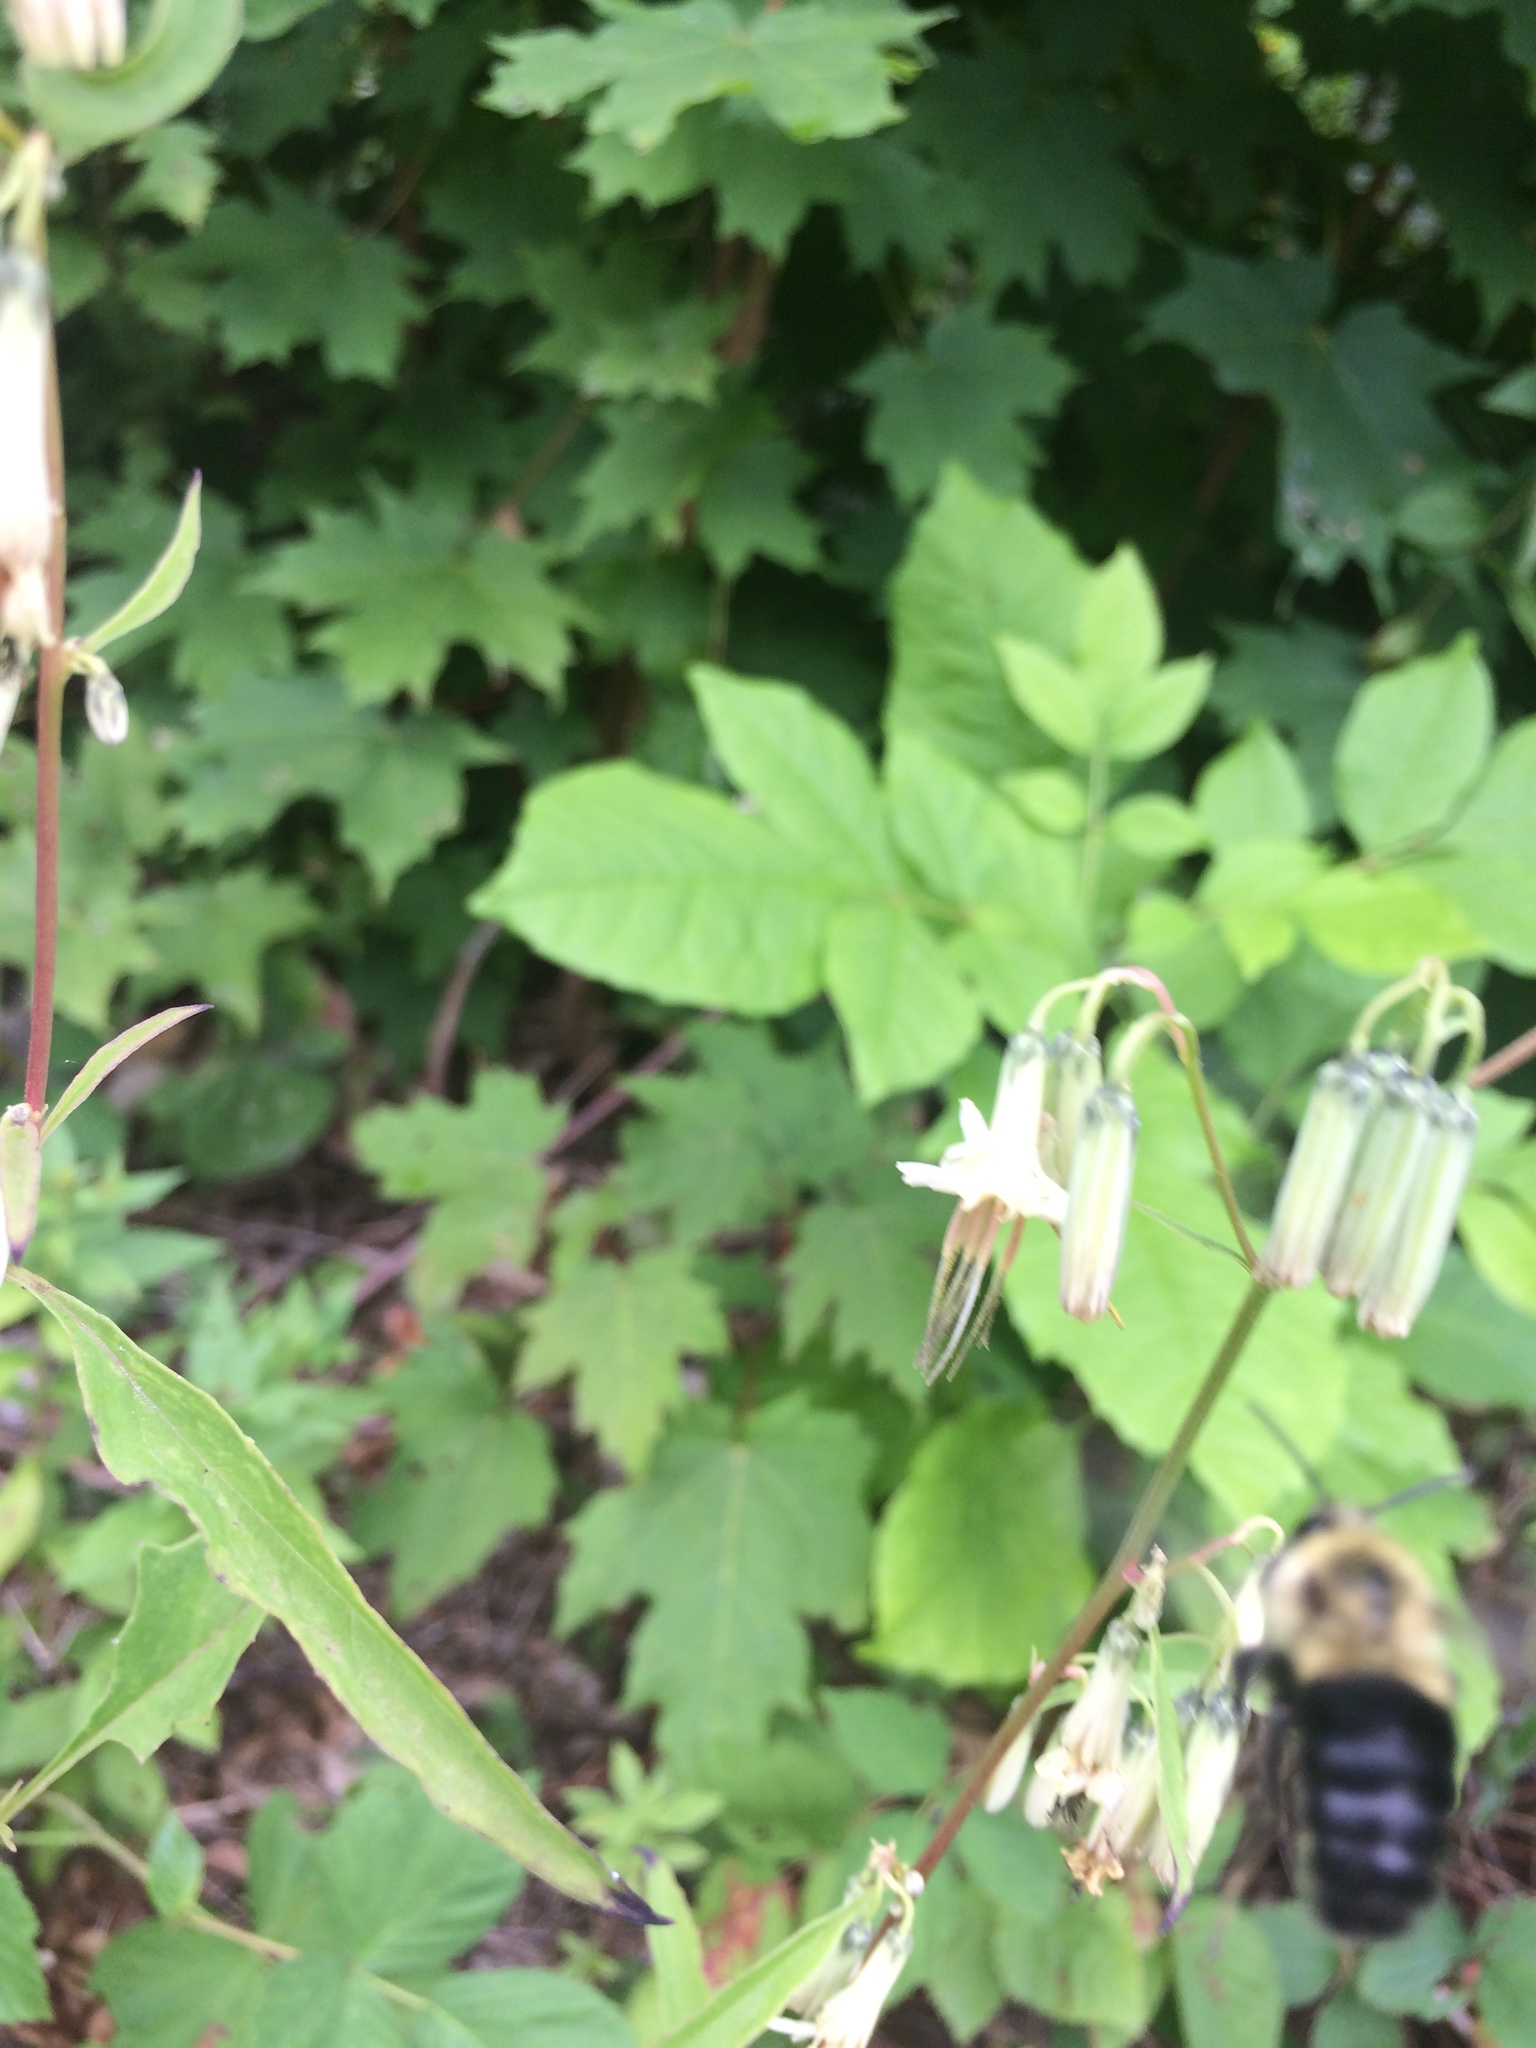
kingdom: Animalia
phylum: Arthropoda
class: Insecta
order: Hymenoptera
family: Apidae
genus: Bombus
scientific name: Bombus impatiens
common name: Common eastern bumble bee
